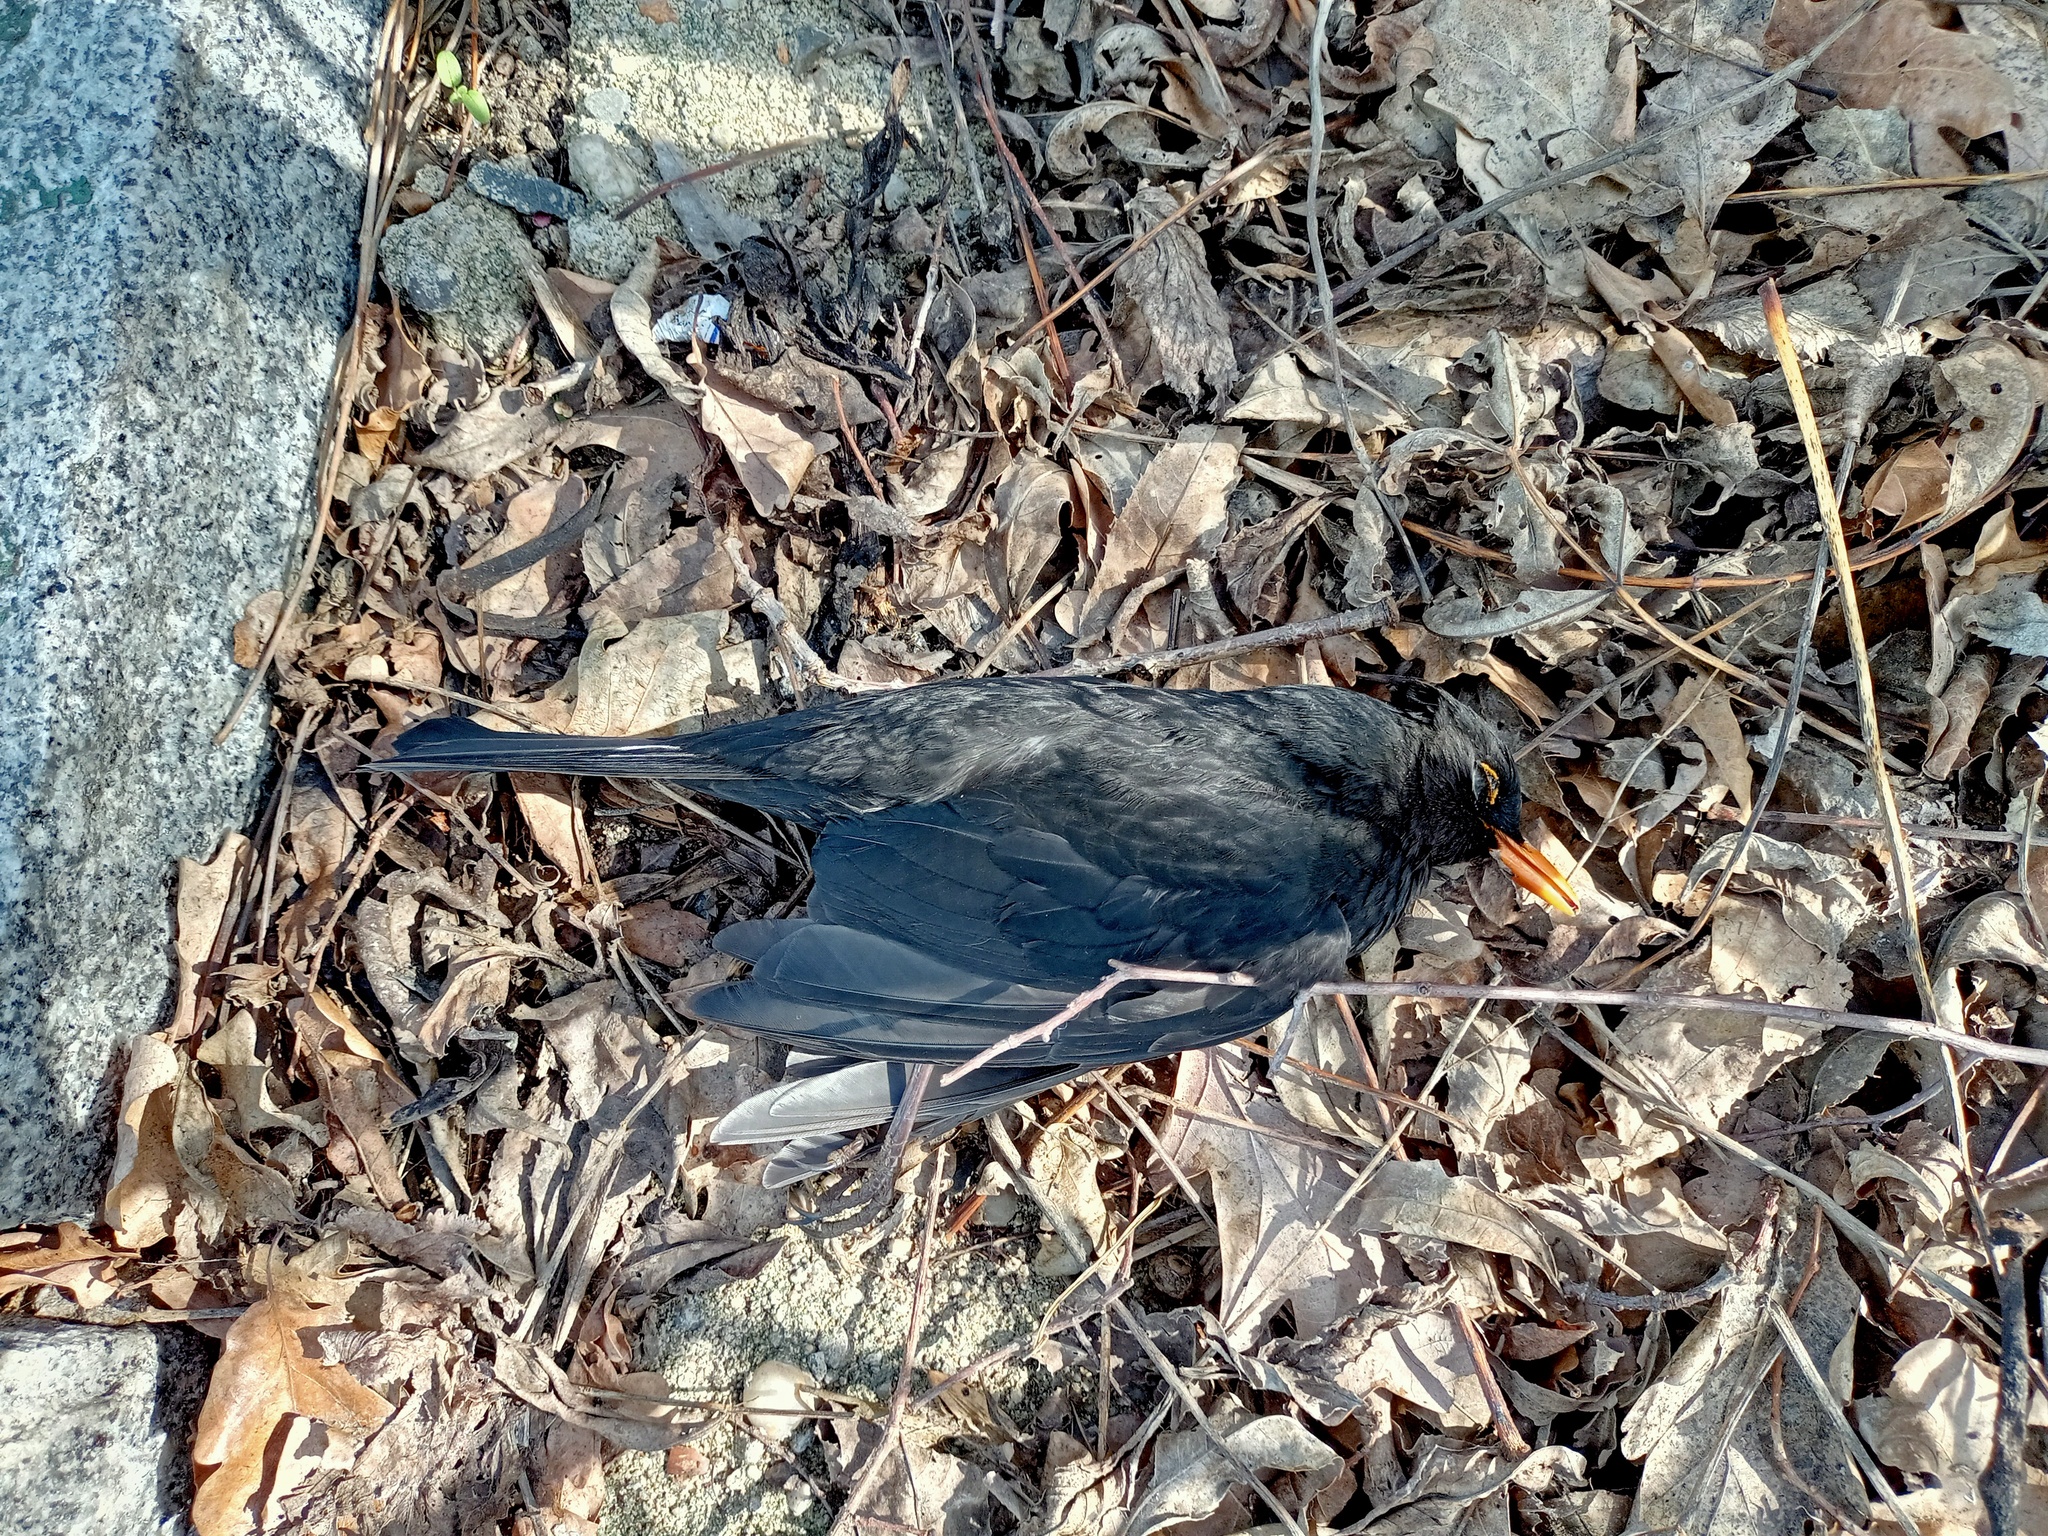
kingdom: Animalia
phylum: Chordata
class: Aves
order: Passeriformes
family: Turdidae
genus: Turdus
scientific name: Turdus merula
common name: Common blackbird
